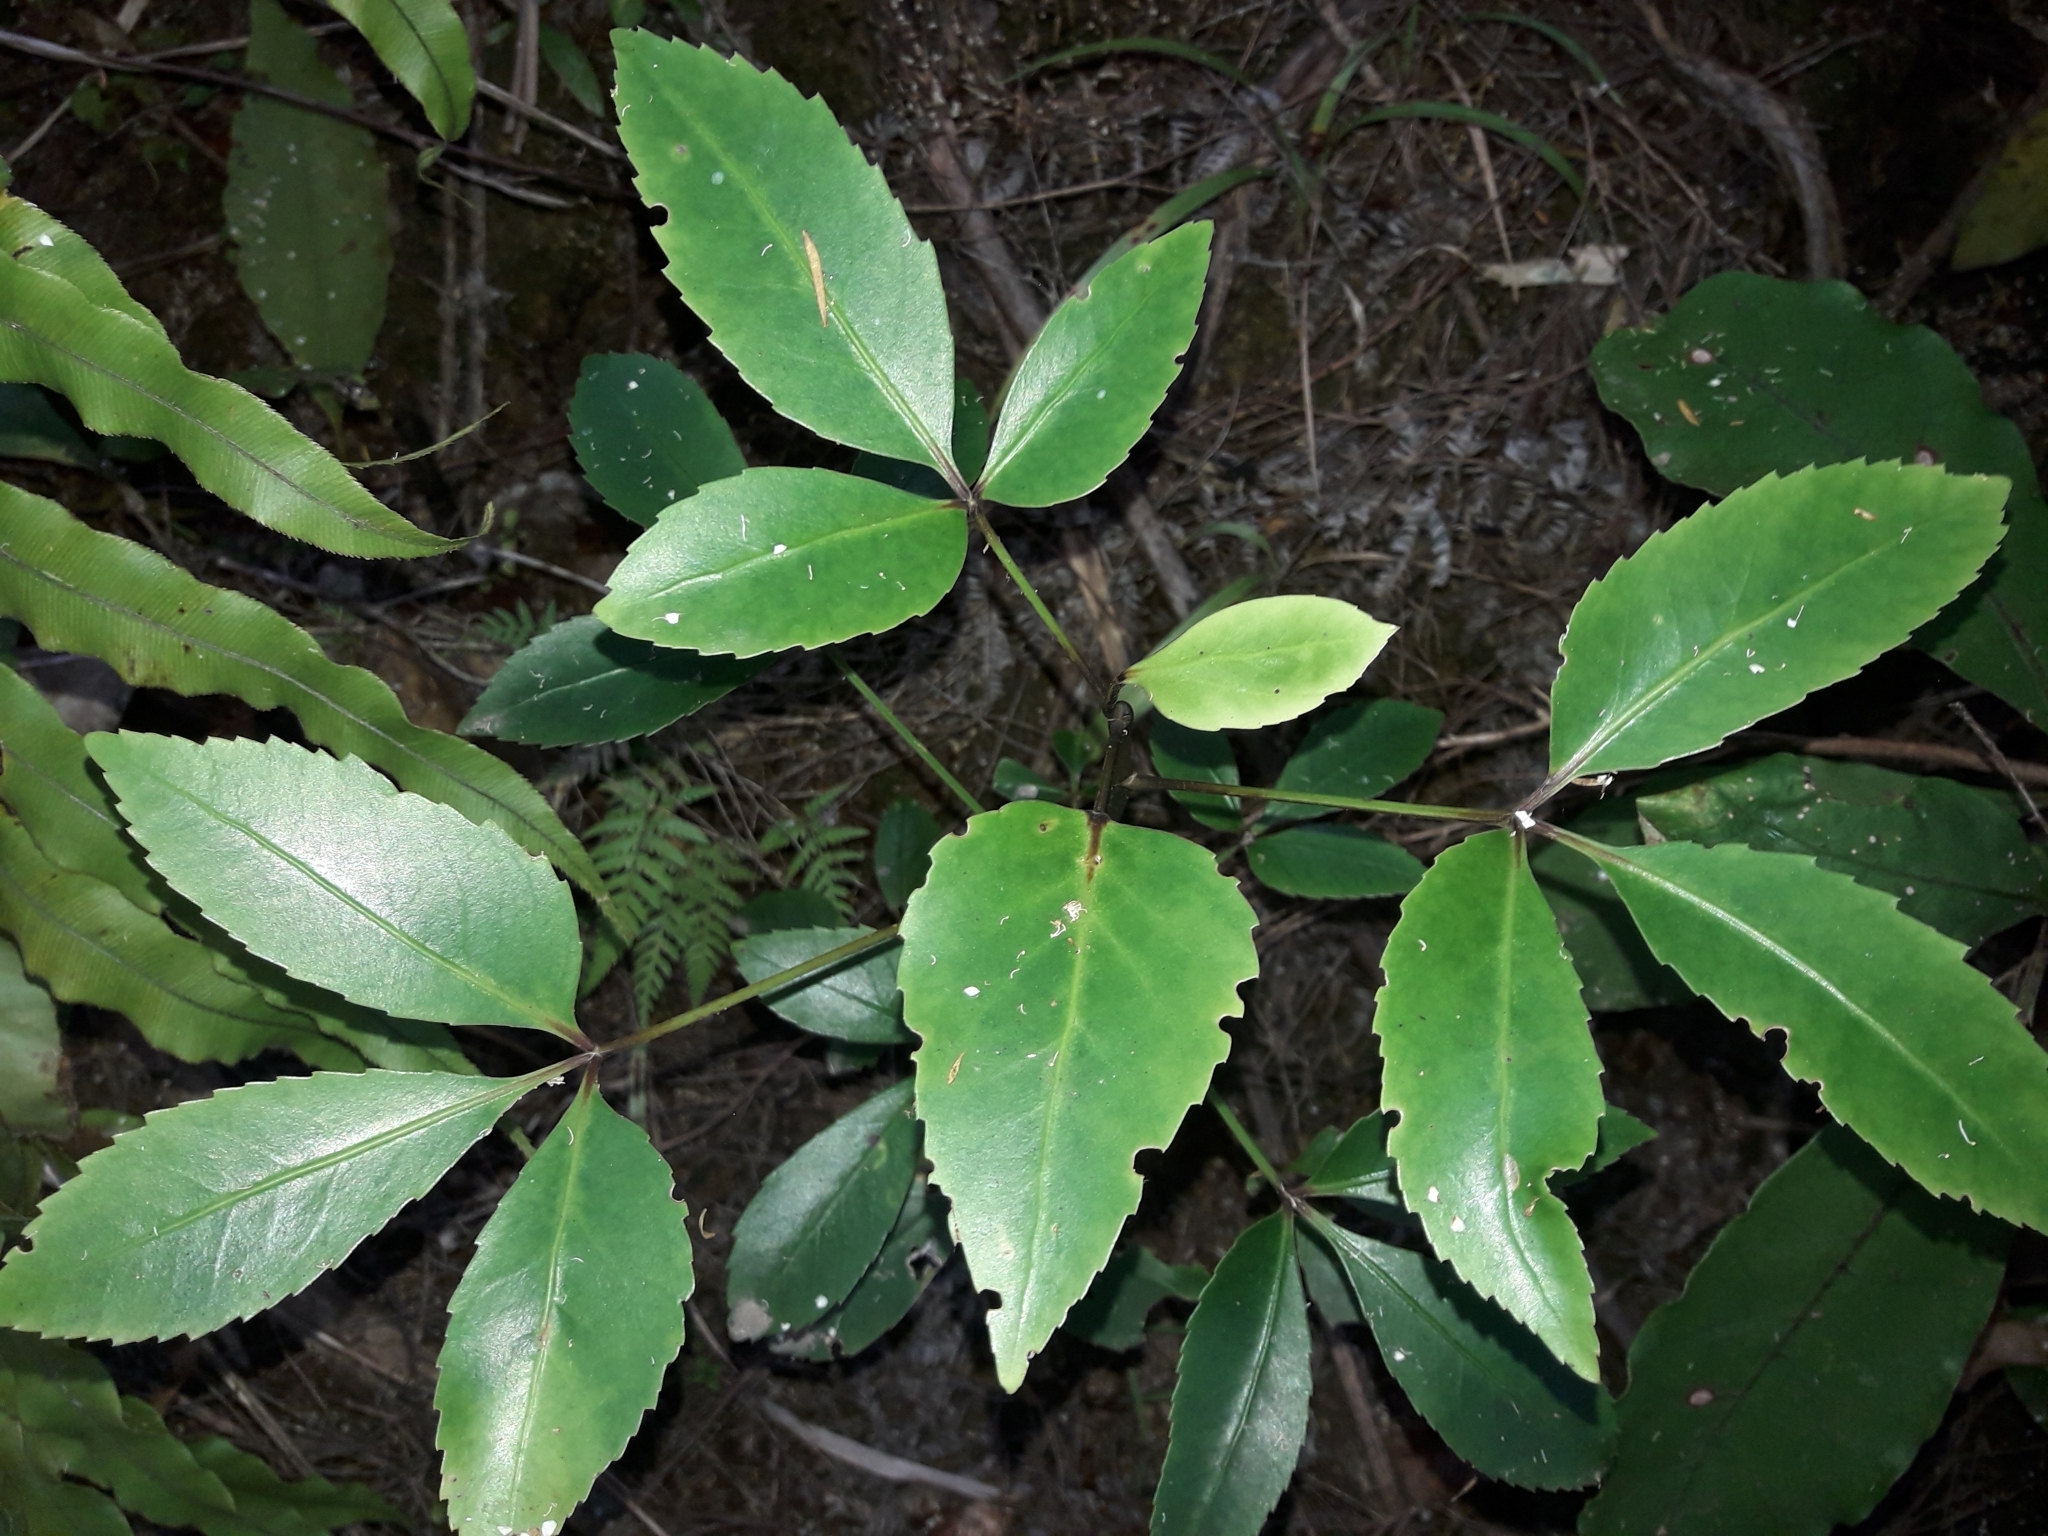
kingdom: Plantae
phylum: Tracheophyta
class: Magnoliopsida
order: Apiales
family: Araliaceae
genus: Pseudopanax
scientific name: Pseudopanax gilliesii
